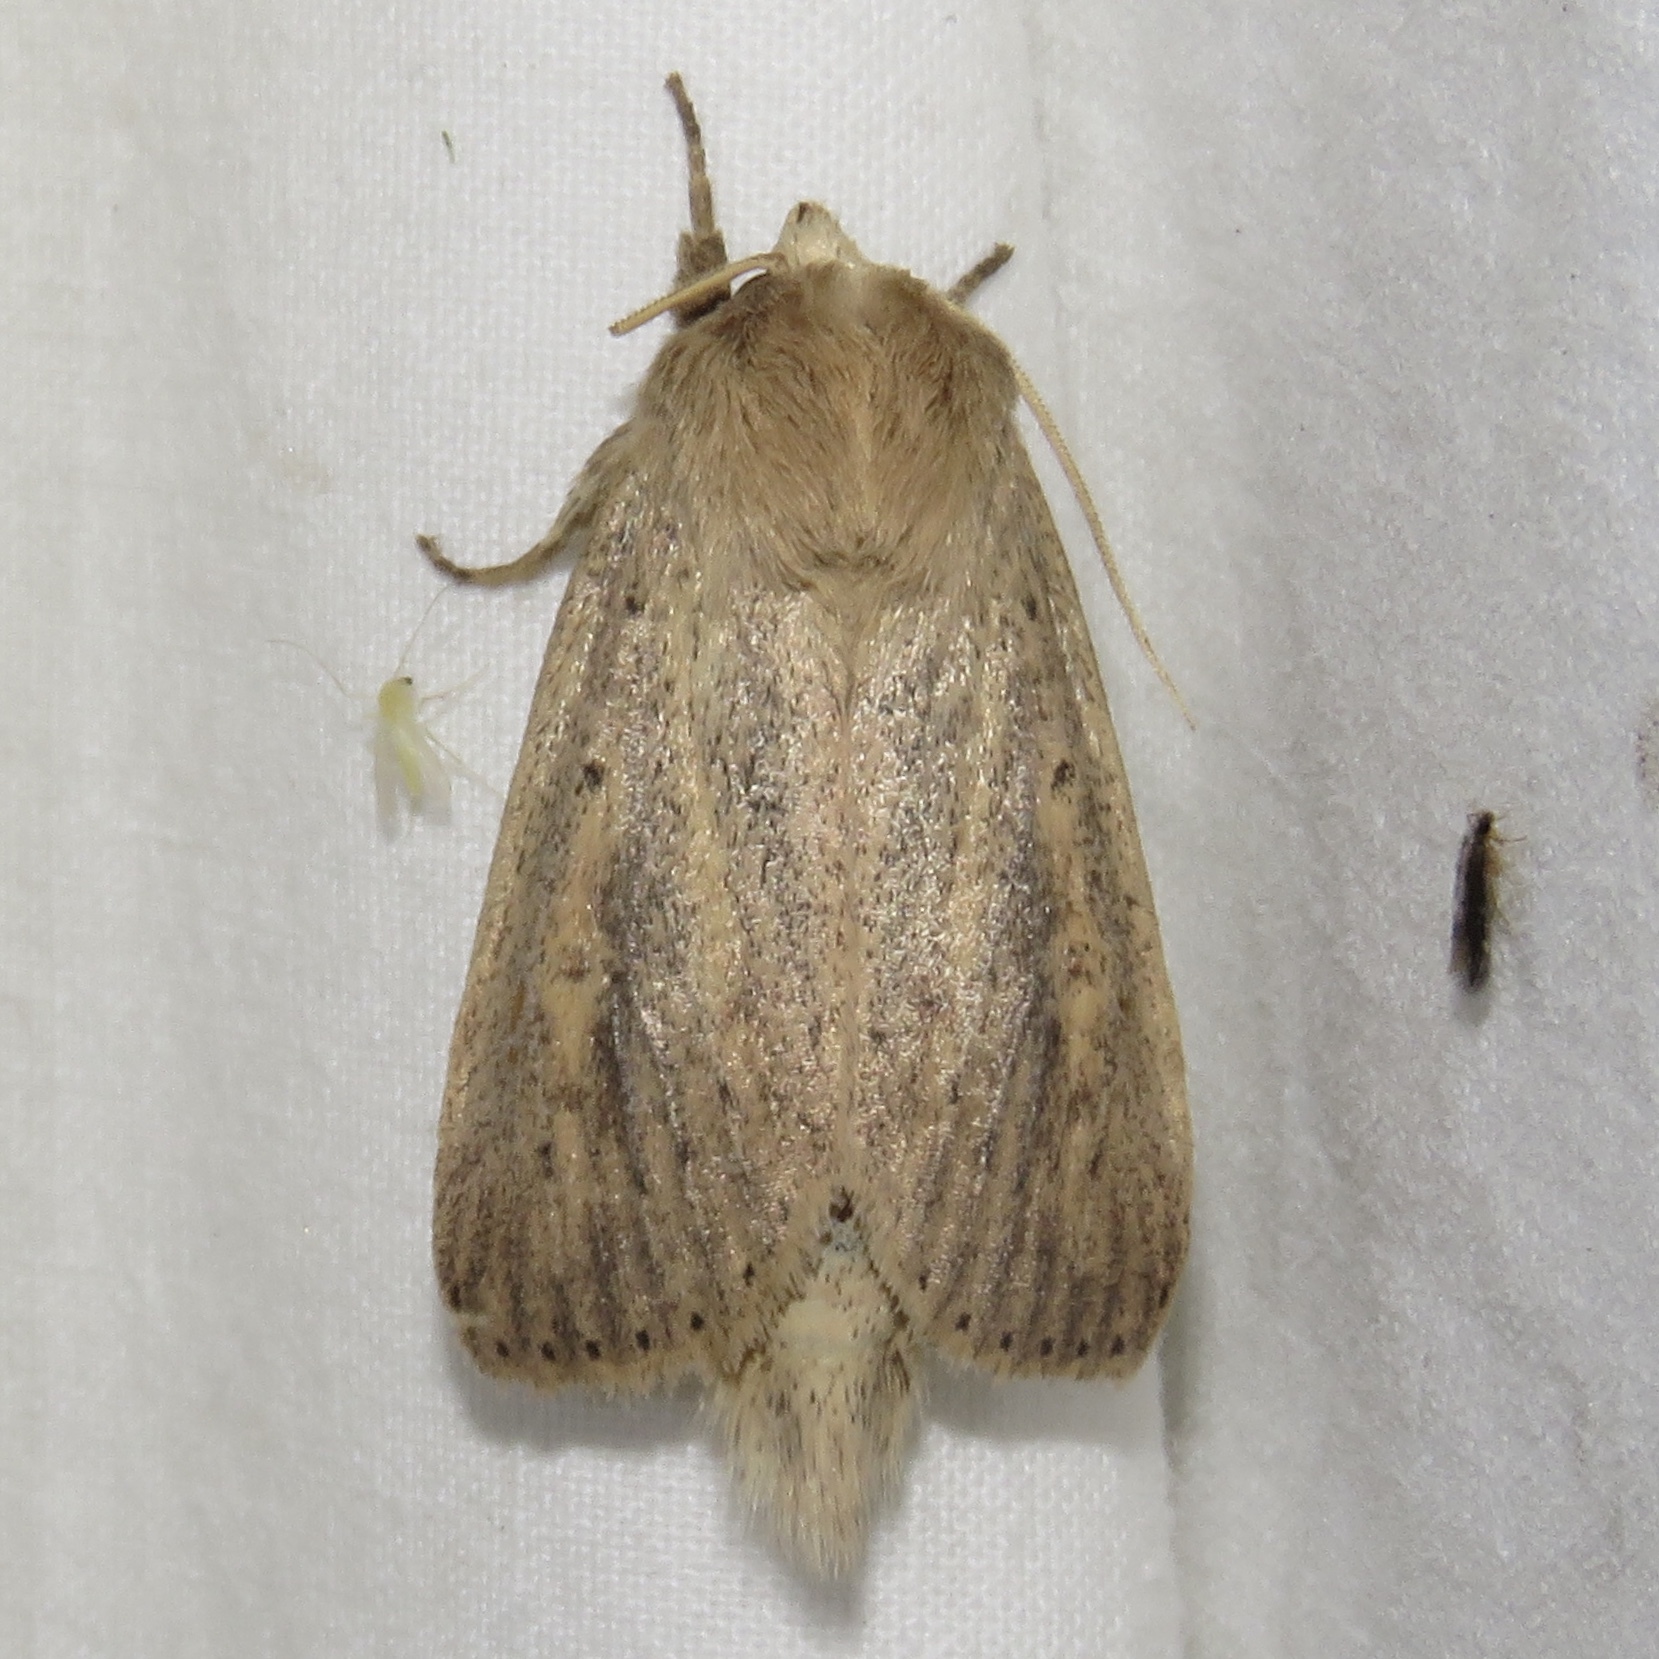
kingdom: Animalia
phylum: Arthropoda
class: Insecta
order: Lepidoptera
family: Noctuidae
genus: Globia
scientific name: Globia oblonga
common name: Oblong sedge borer moth
